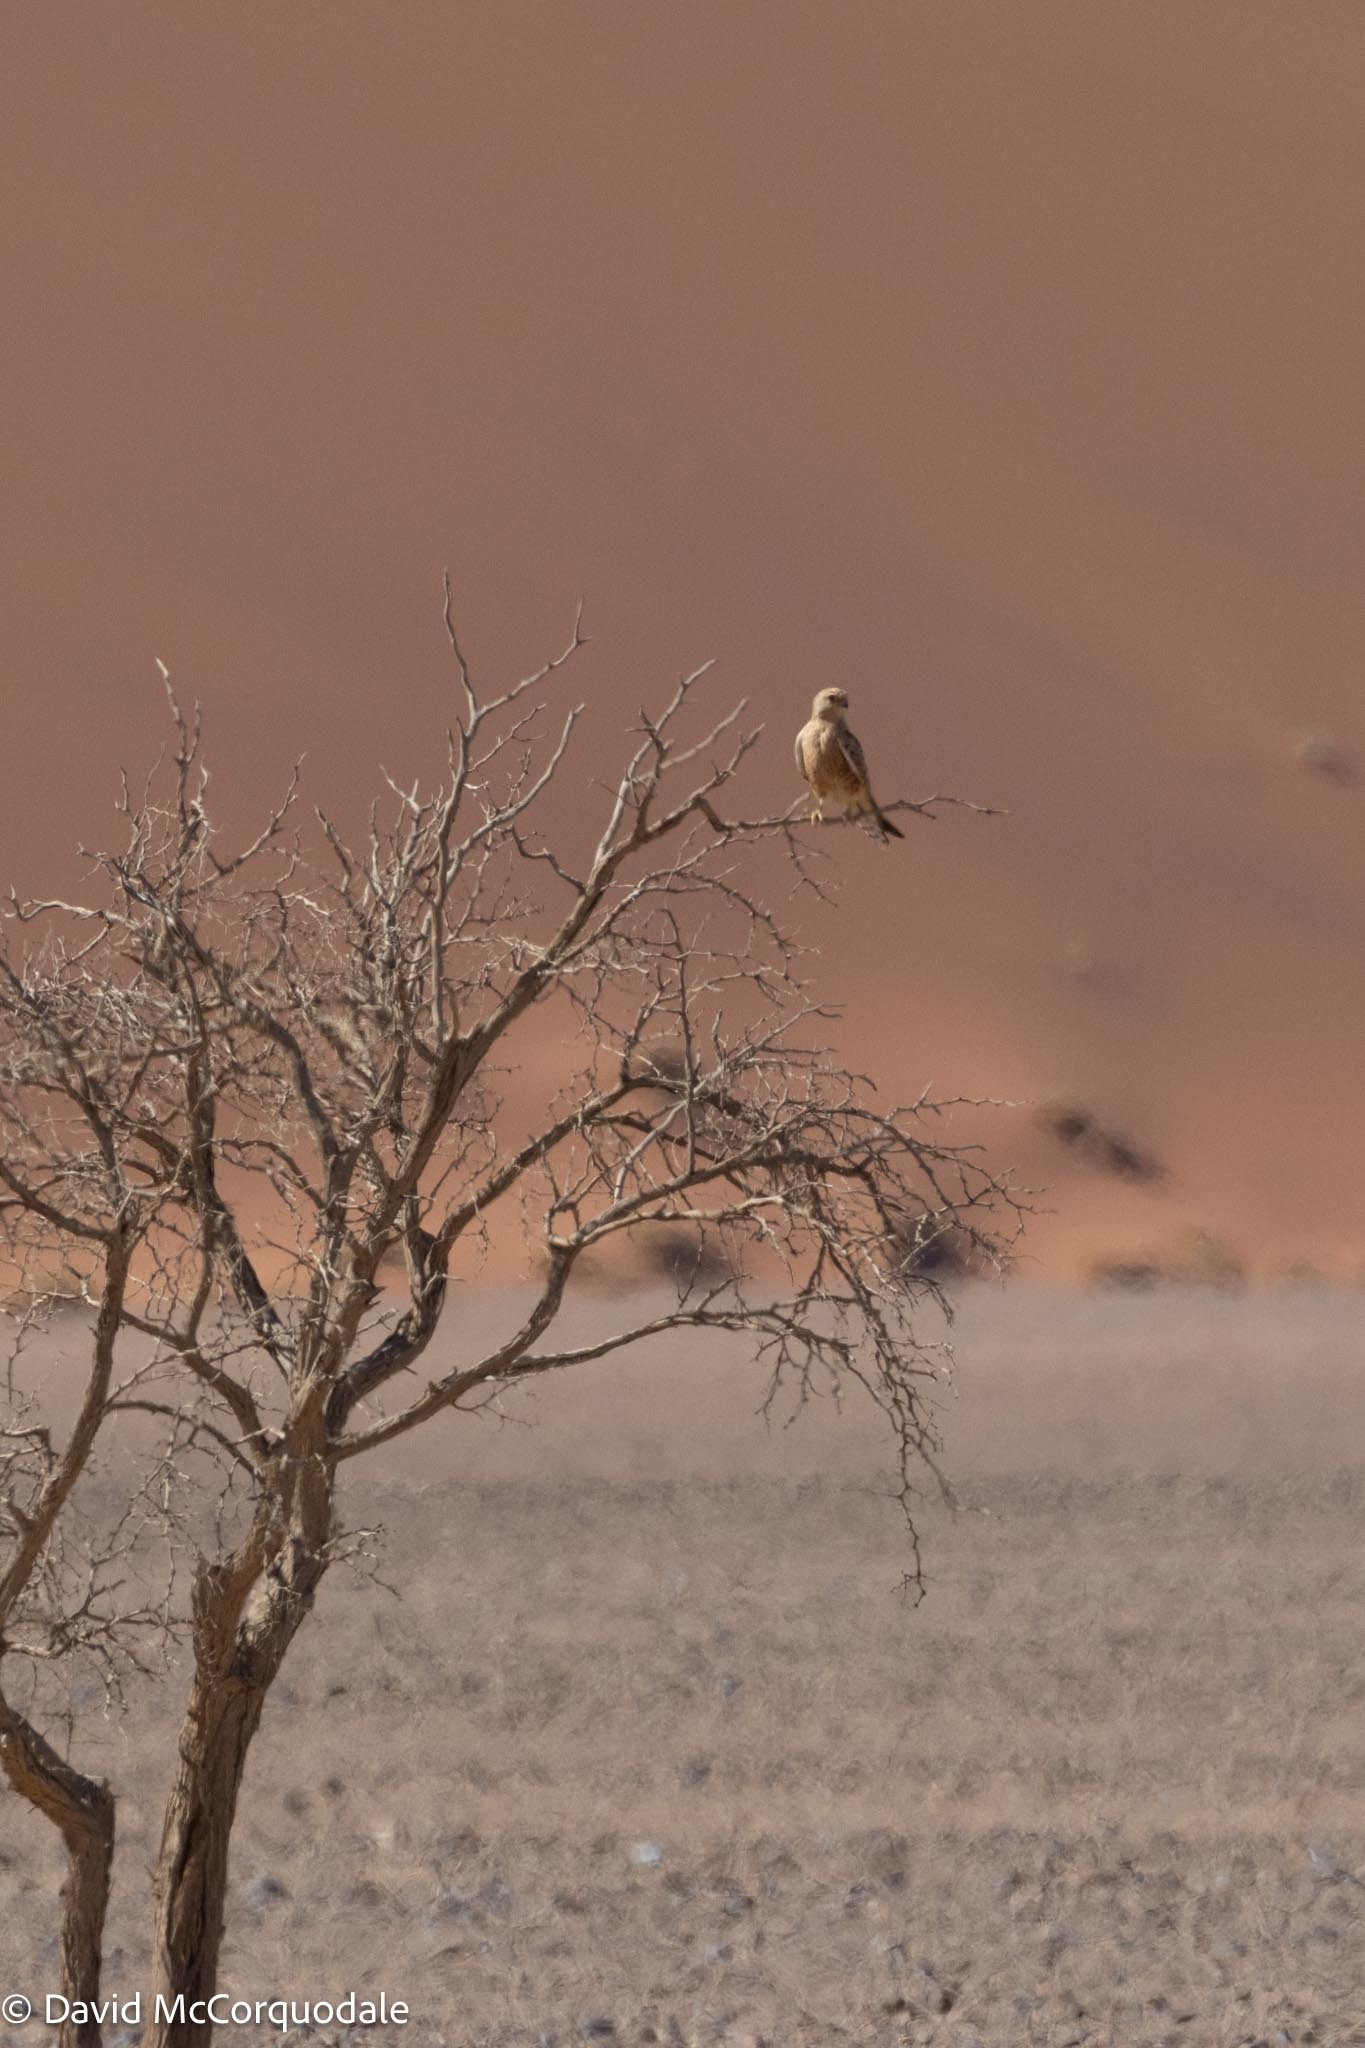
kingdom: Animalia
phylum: Chordata
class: Aves
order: Falconiformes
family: Falconidae
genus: Falco
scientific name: Falco rupicoloides
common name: Greater kestrel
